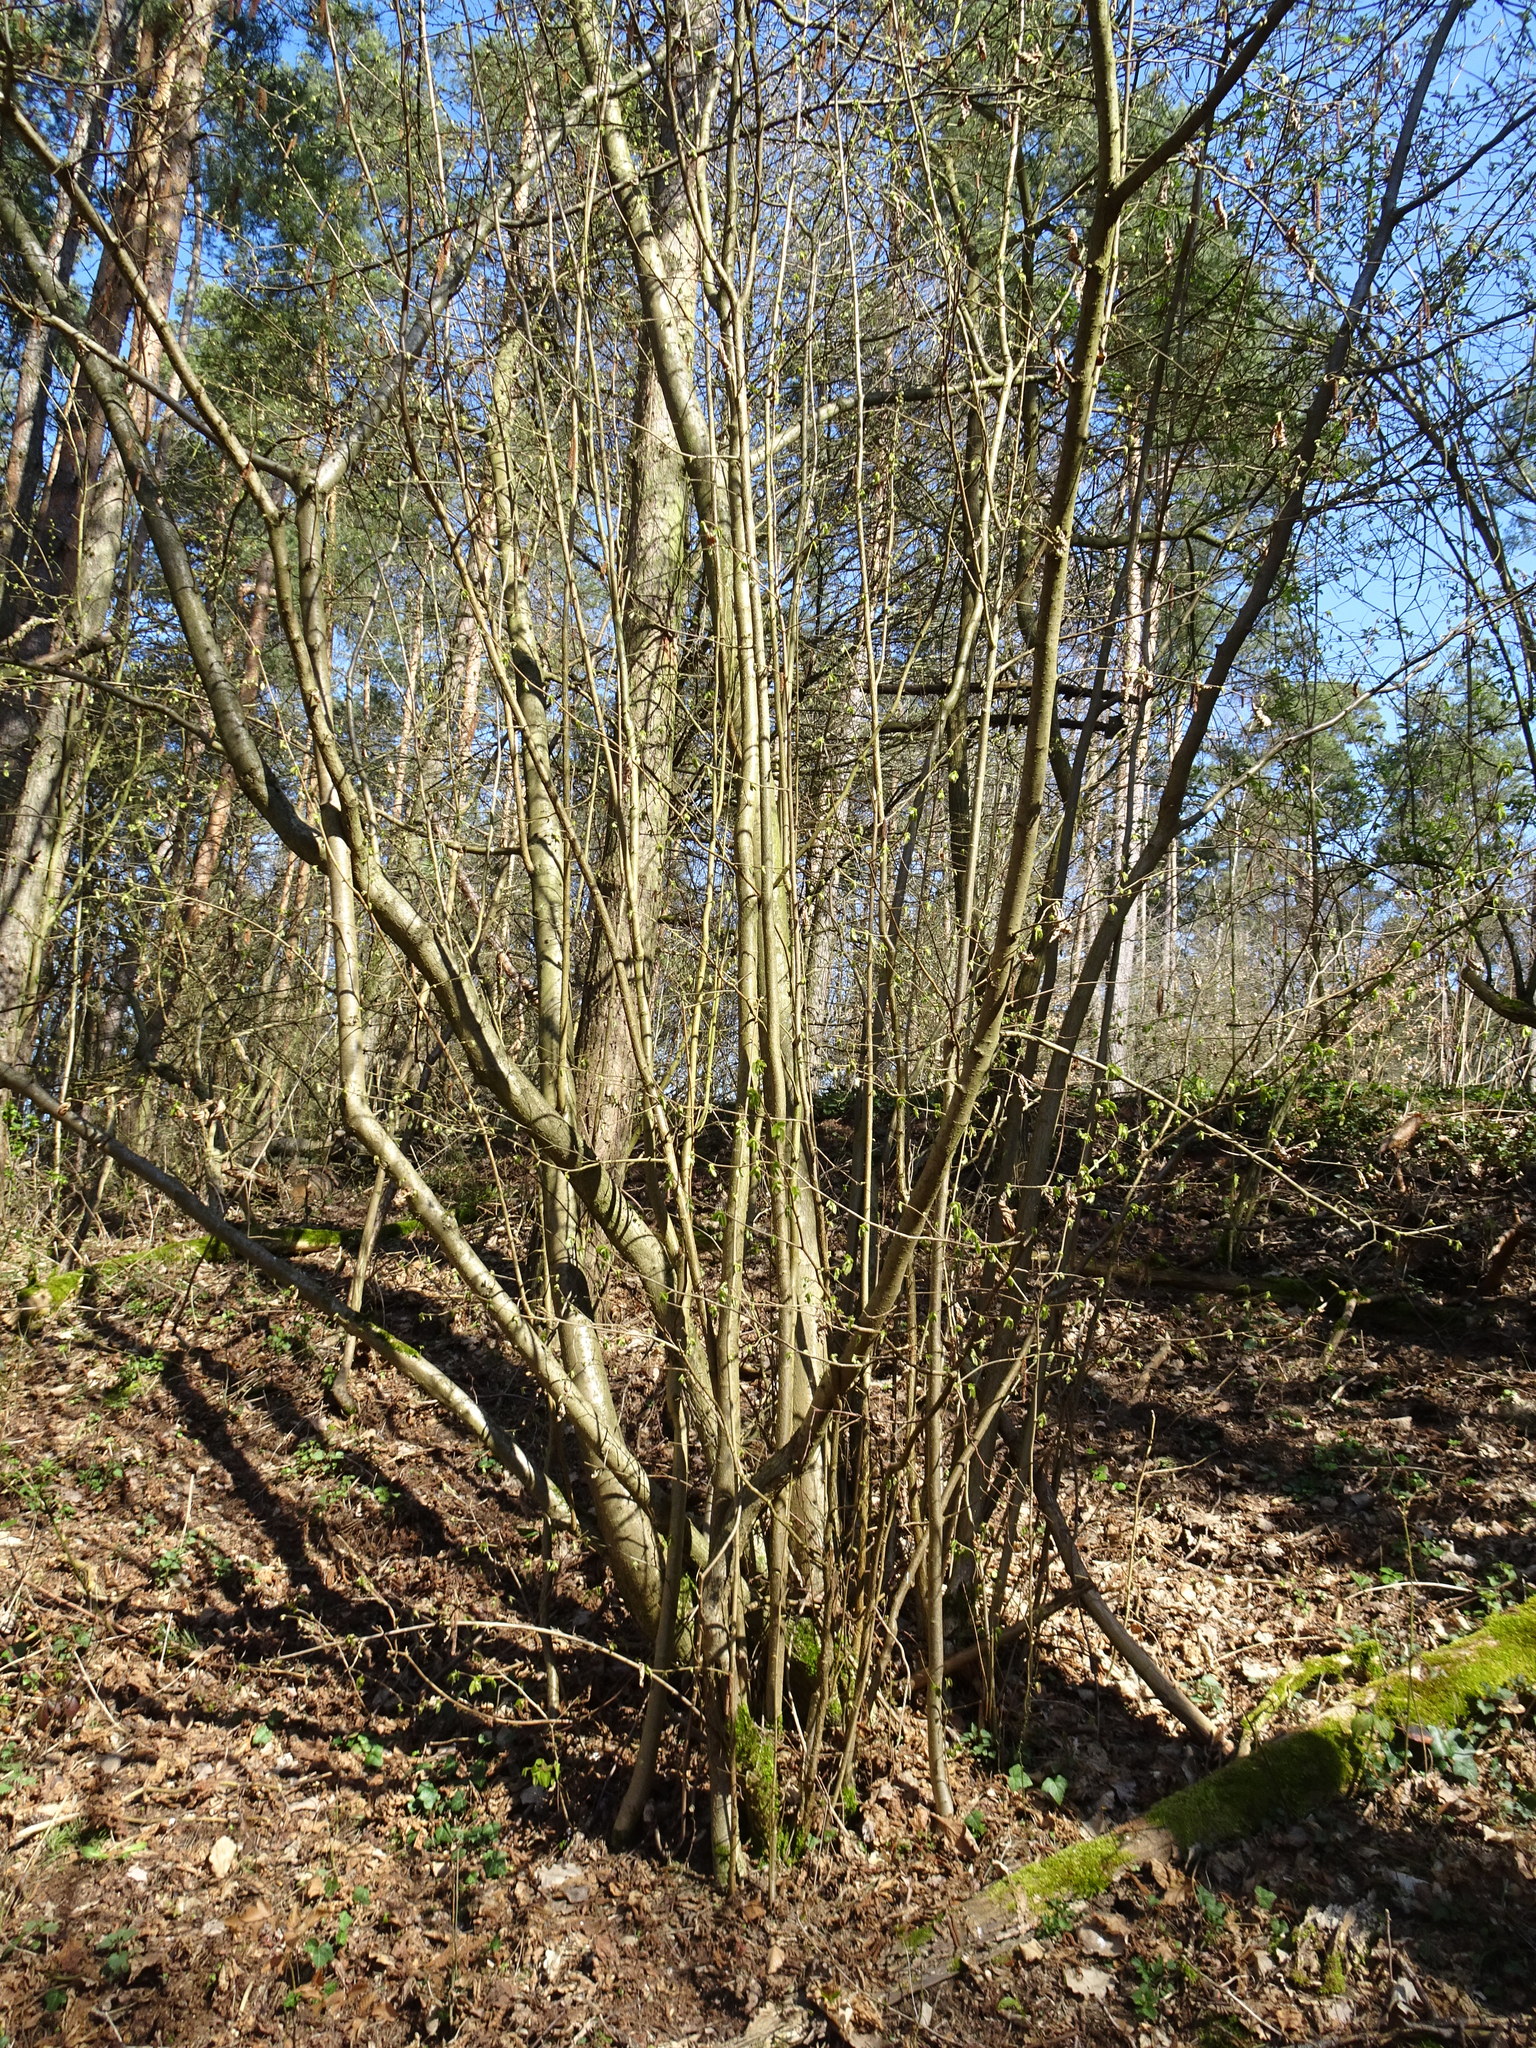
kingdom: Plantae
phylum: Tracheophyta
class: Magnoliopsida
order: Fagales
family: Betulaceae
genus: Corylus
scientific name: Corylus avellana
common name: European hazel
